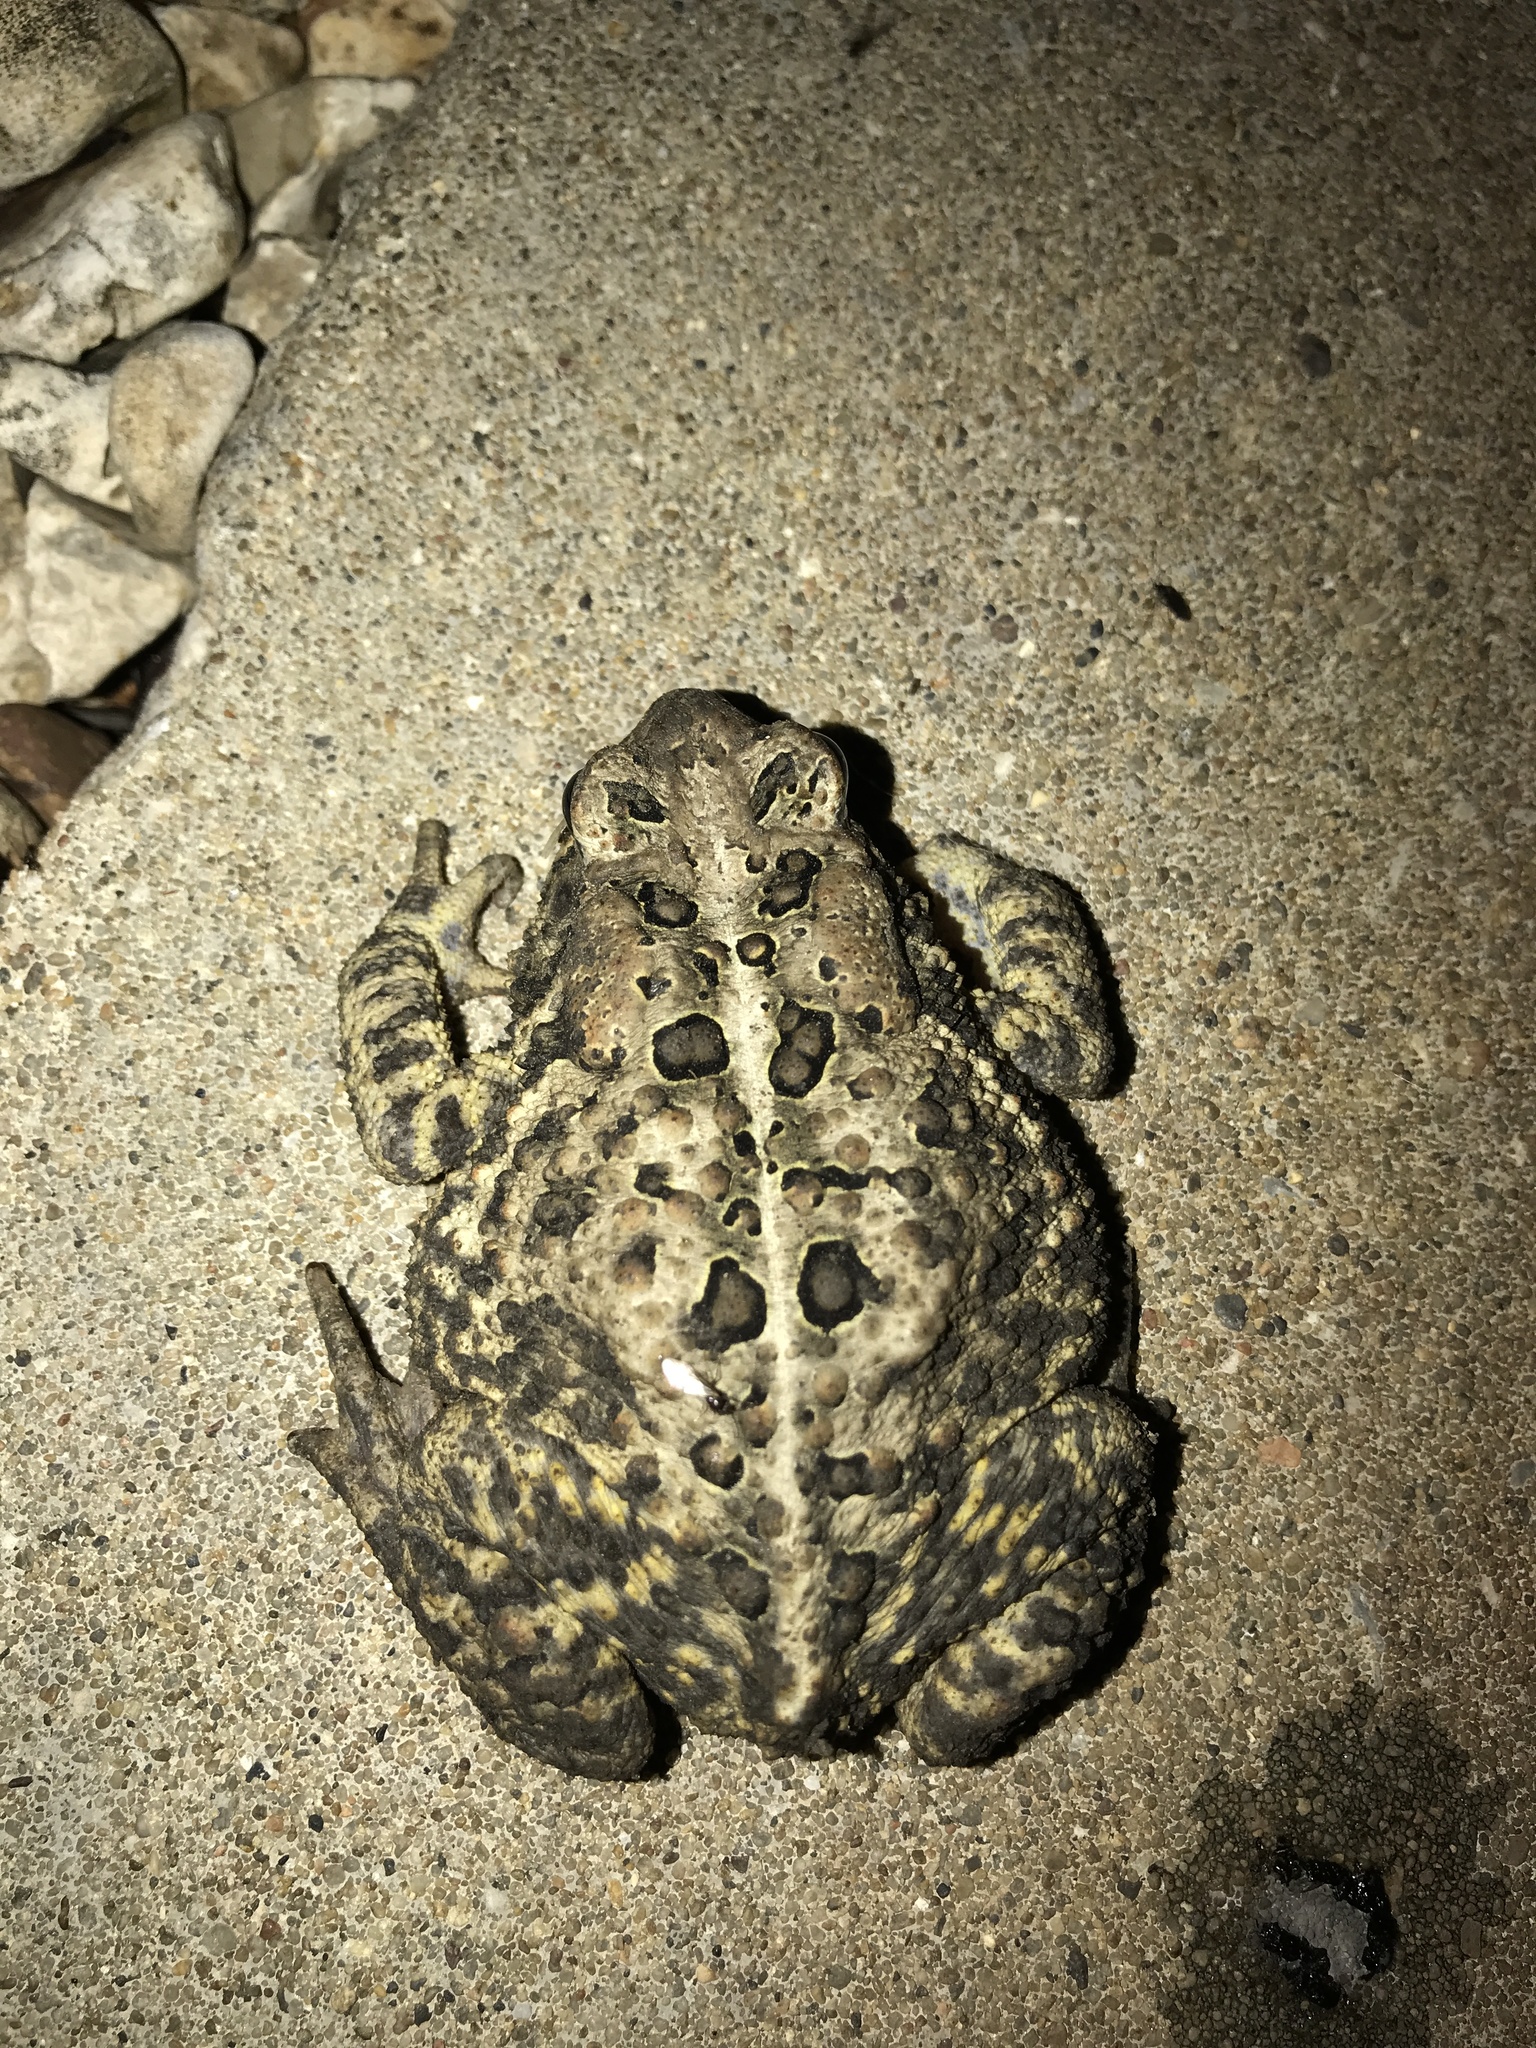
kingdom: Animalia
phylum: Chordata
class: Amphibia
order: Anura
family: Bufonidae
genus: Anaxyrus
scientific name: Anaxyrus americanus
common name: American toad
